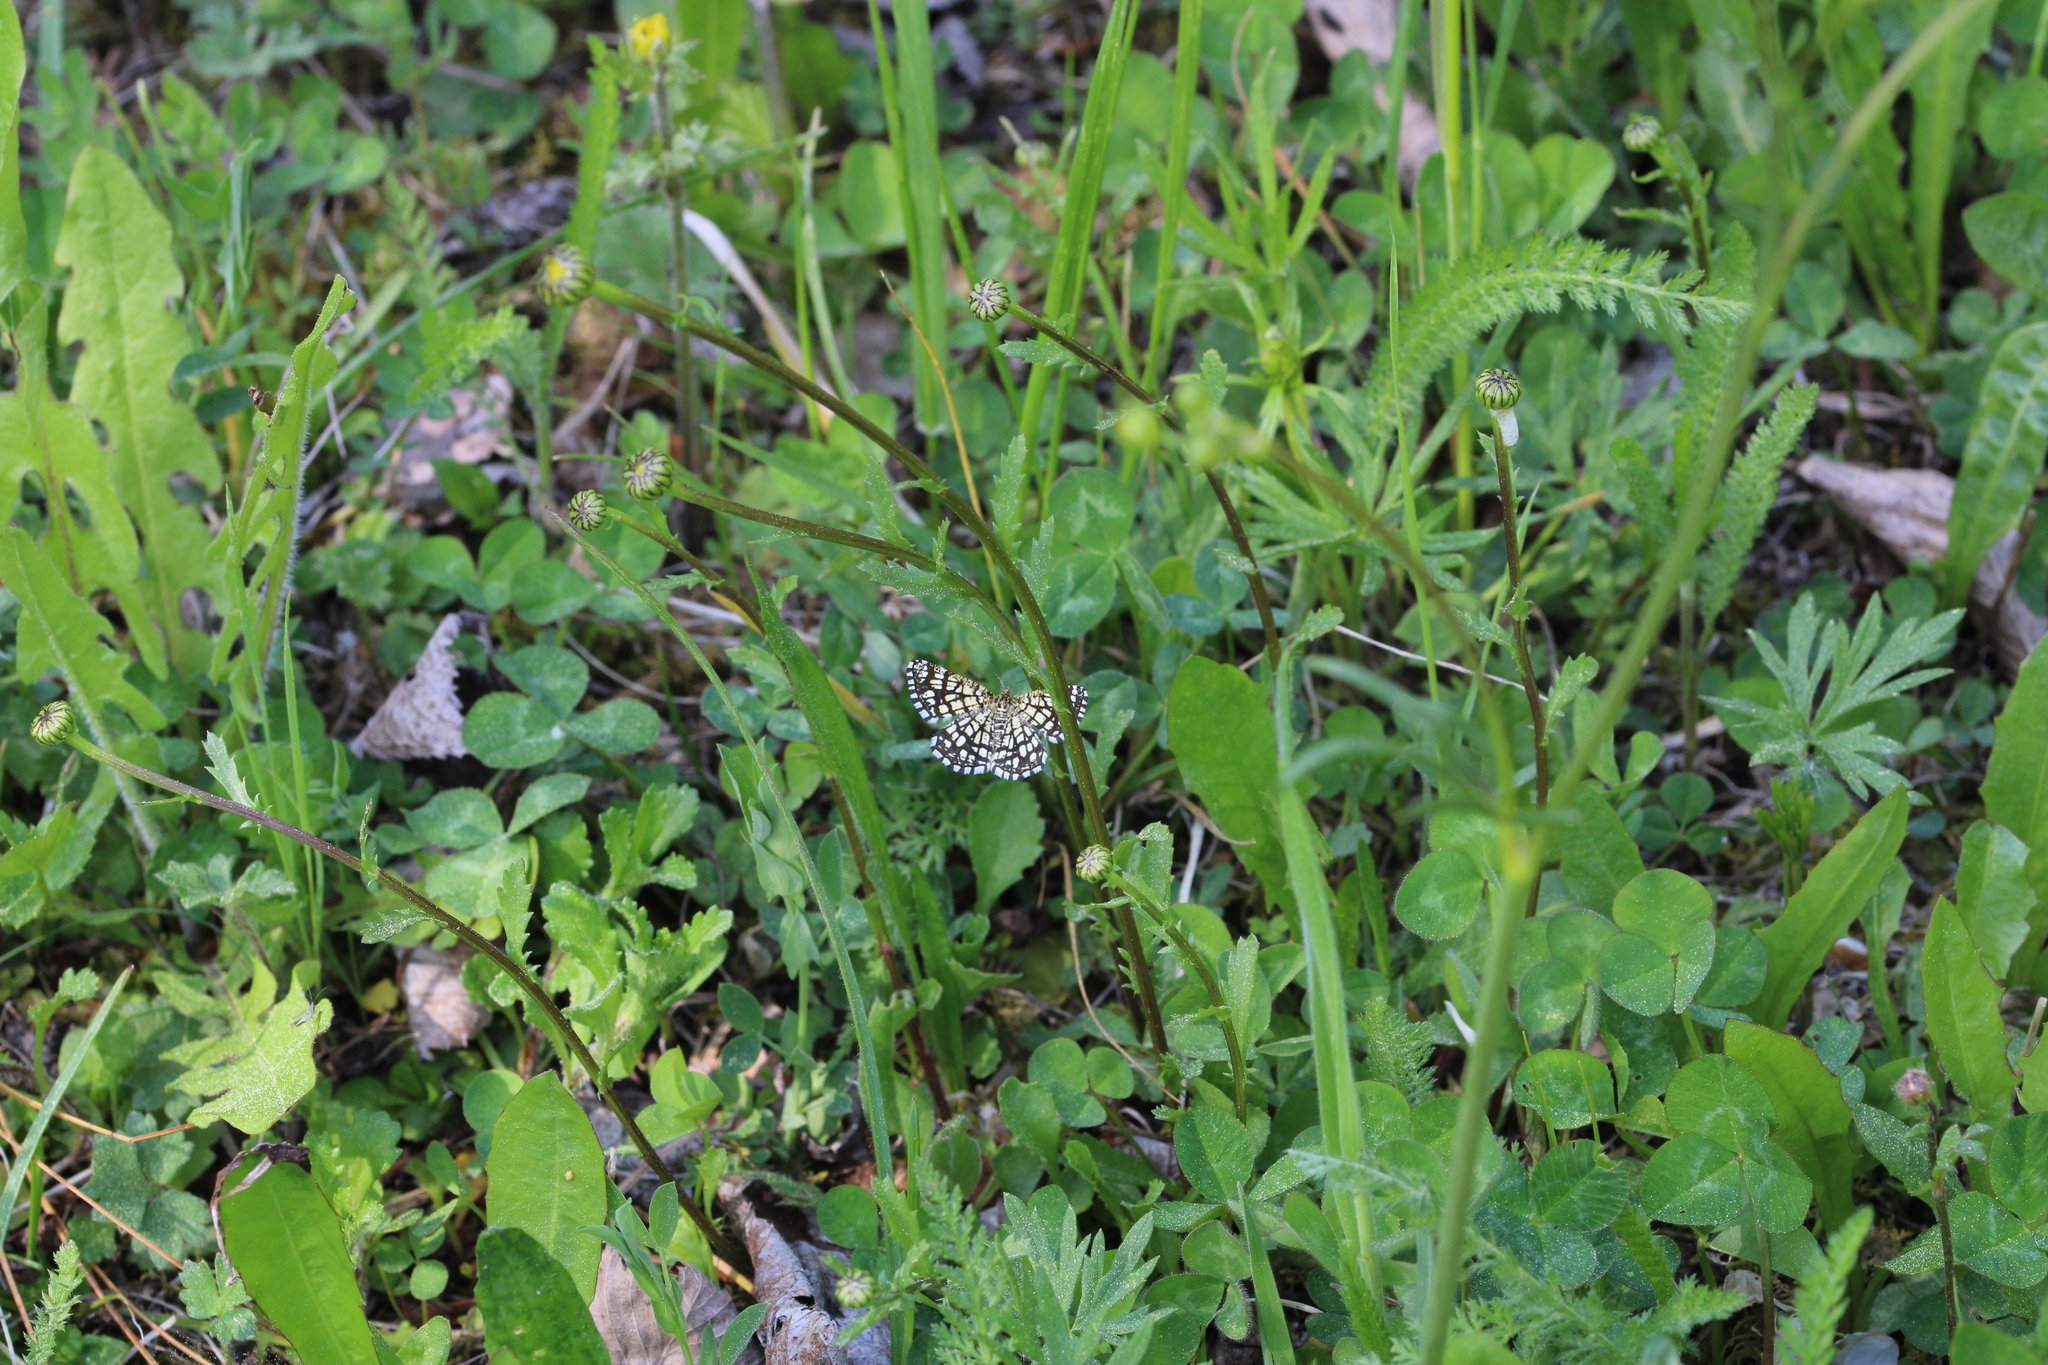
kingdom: Animalia
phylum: Arthropoda
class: Insecta
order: Lepidoptera
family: Geometridae
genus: Chiasmia
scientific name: Chiasmia clathrata
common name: Latticed heath
